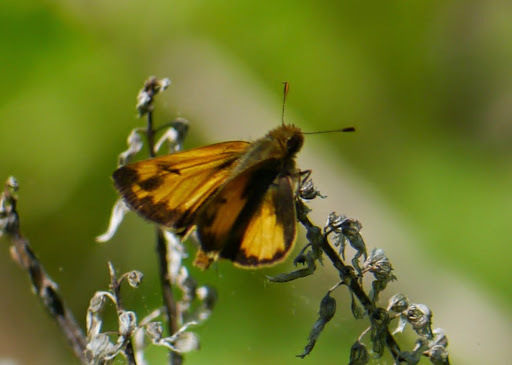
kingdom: Animalia
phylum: Arthropoda
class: Insecta
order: Lepidoptera
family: Hesperiidae
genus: Lon
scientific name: Lon zabulon
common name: Zabulon skipper
